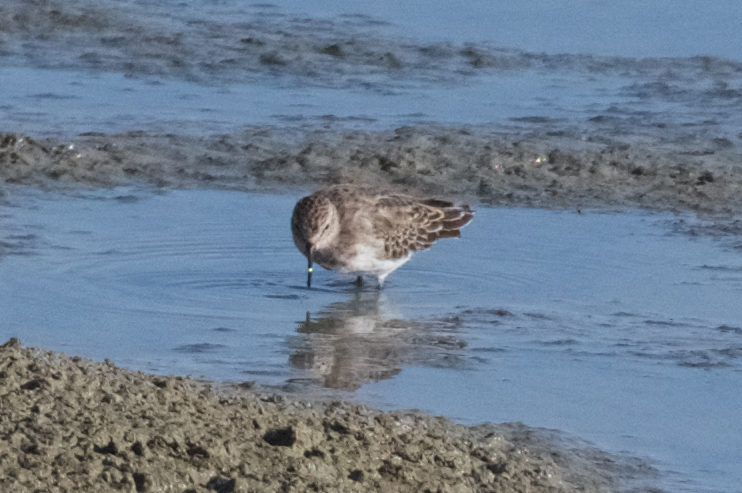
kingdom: Animalia
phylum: Chordata
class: Aves
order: Charadriiformes
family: Scolopacidae
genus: Calidris
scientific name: Calidris minutilla
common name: Least sandpiper
